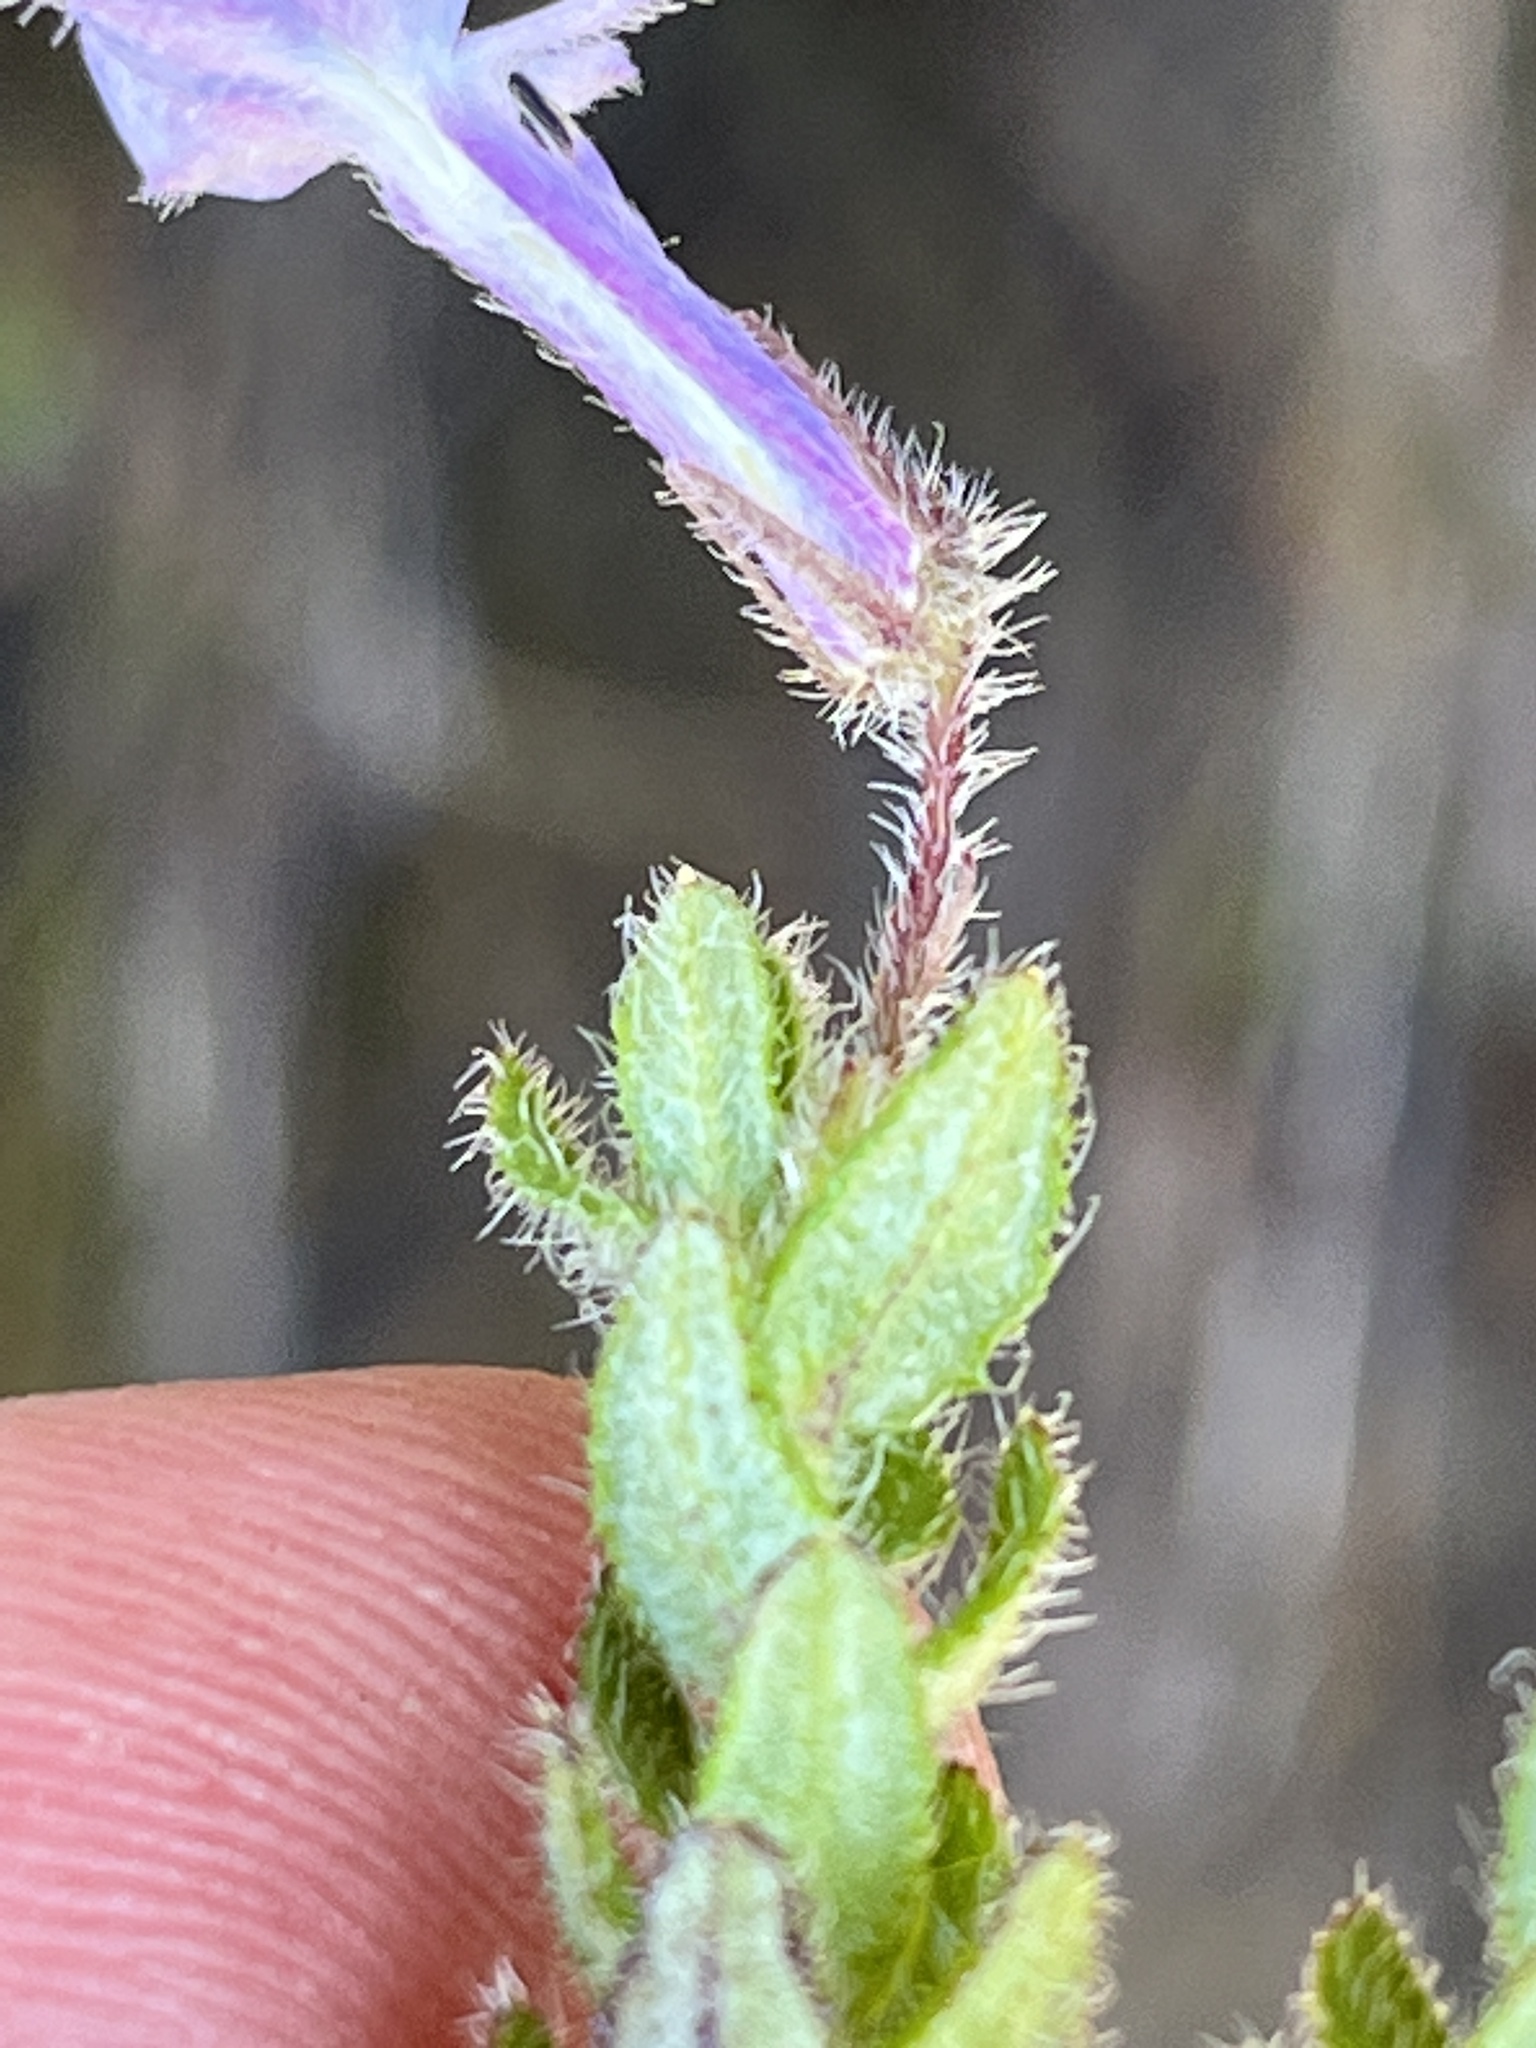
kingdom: Plantae
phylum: Tracheophyta
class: Magnoliopsida
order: Asterales
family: Campanulaceae
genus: Lobelia
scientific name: Lobelia neglecta
